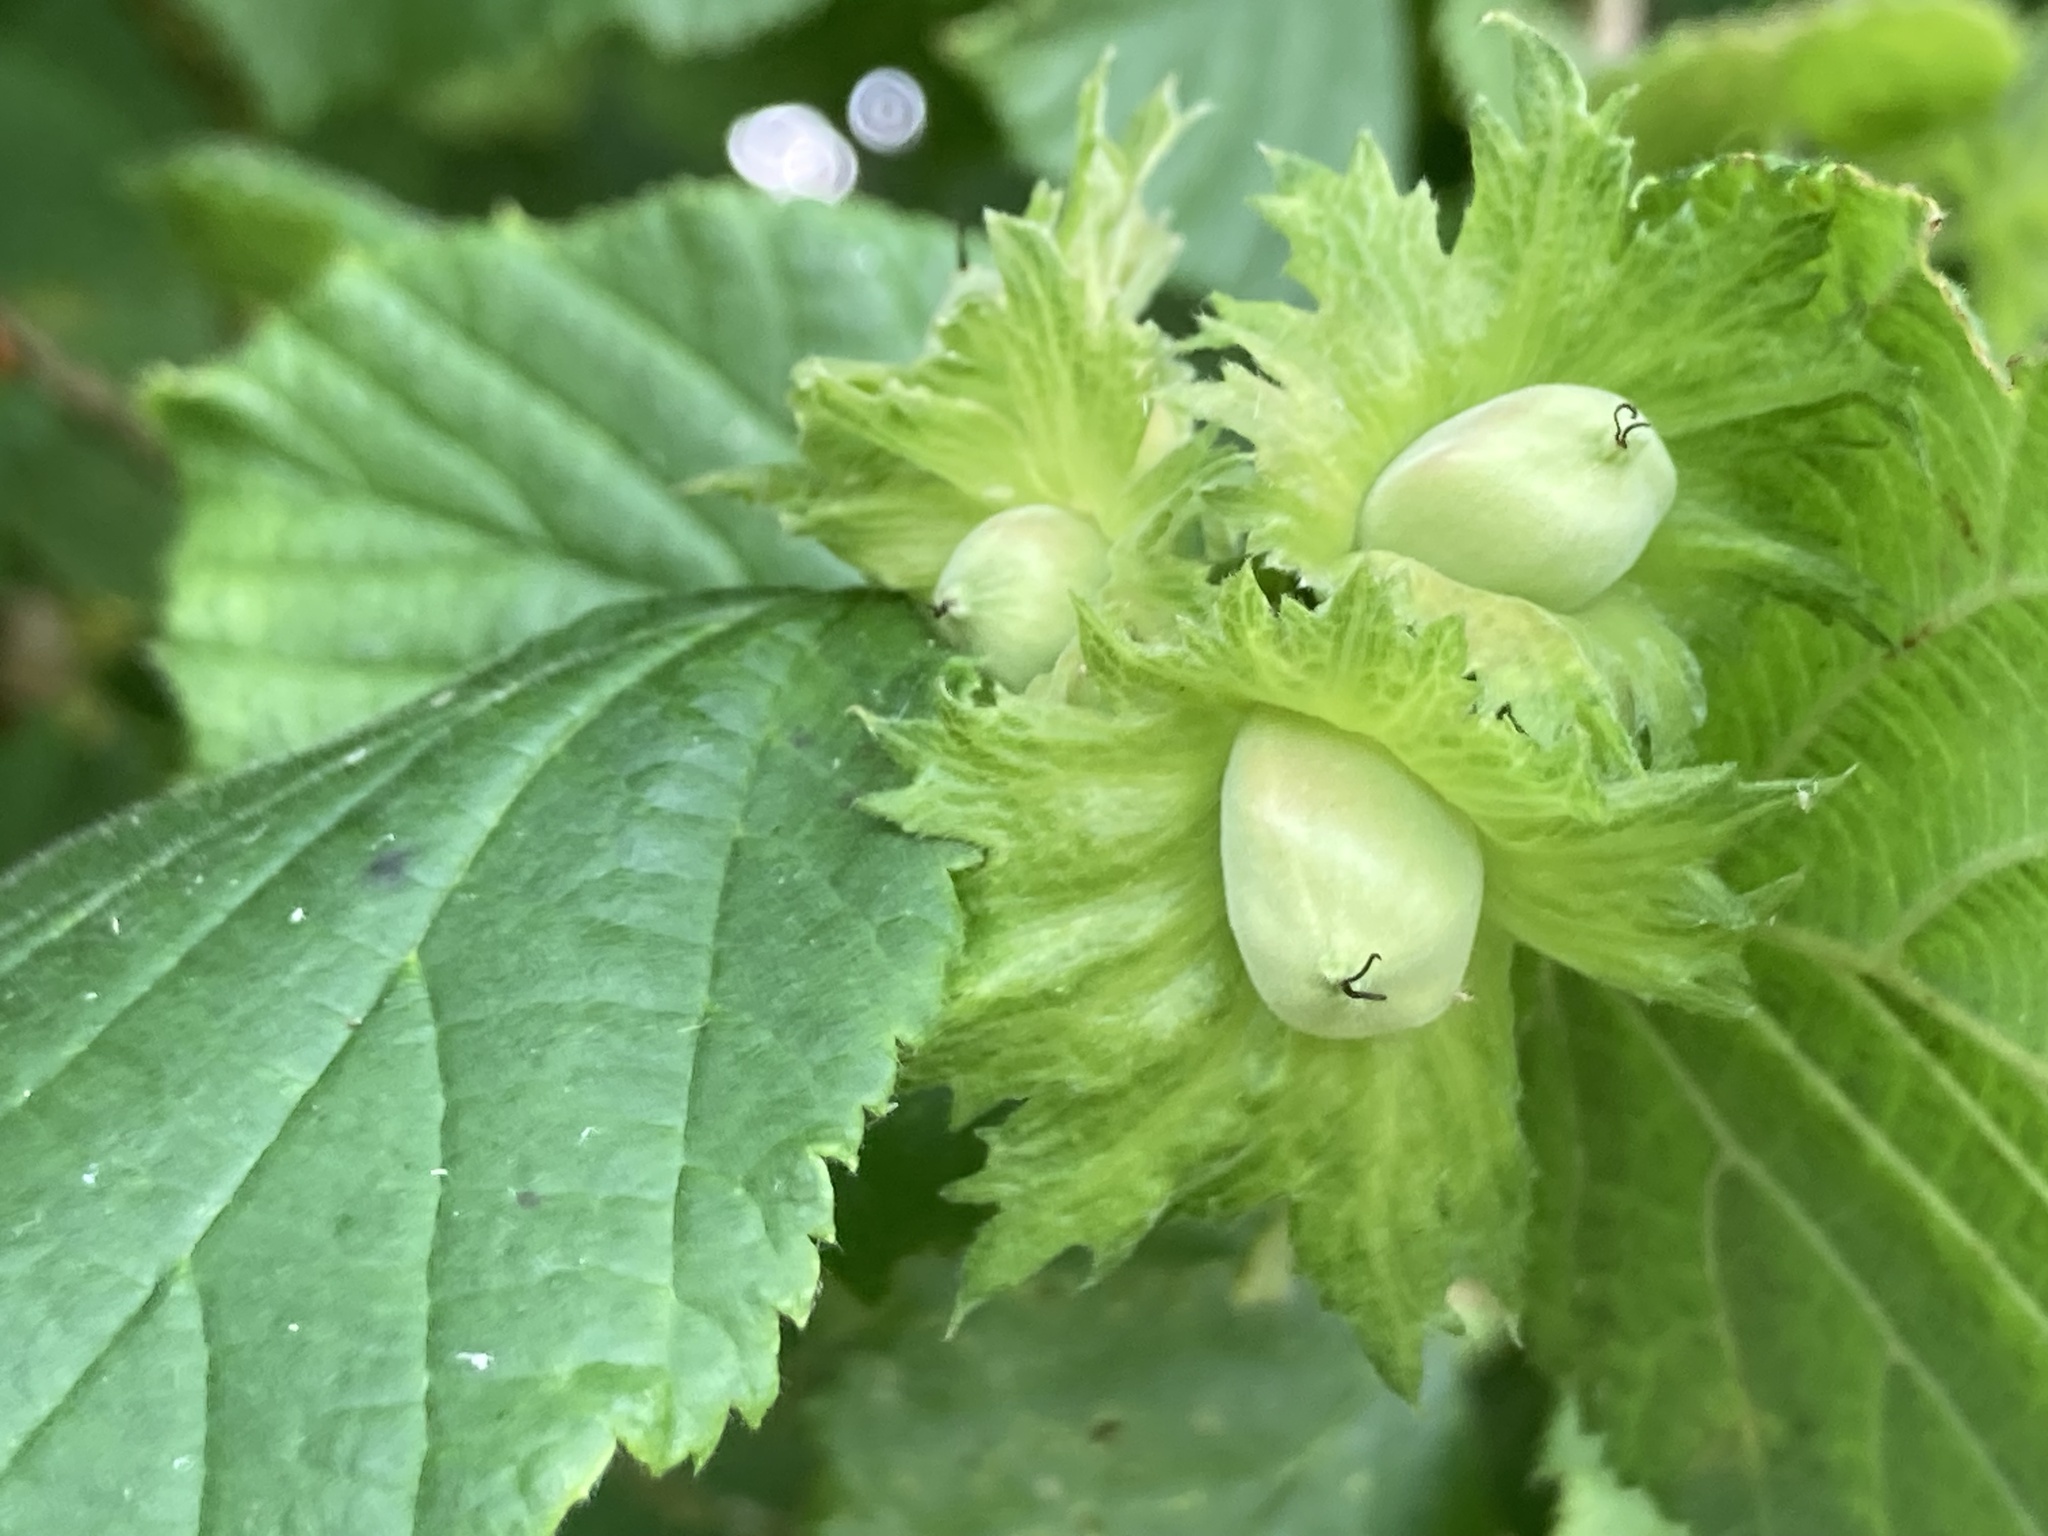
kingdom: Plantae
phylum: Tracheophyta
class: Magnoliopsida
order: Fagales
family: Betulaceae
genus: Corylus
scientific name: Corylus avellana
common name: European hazel
